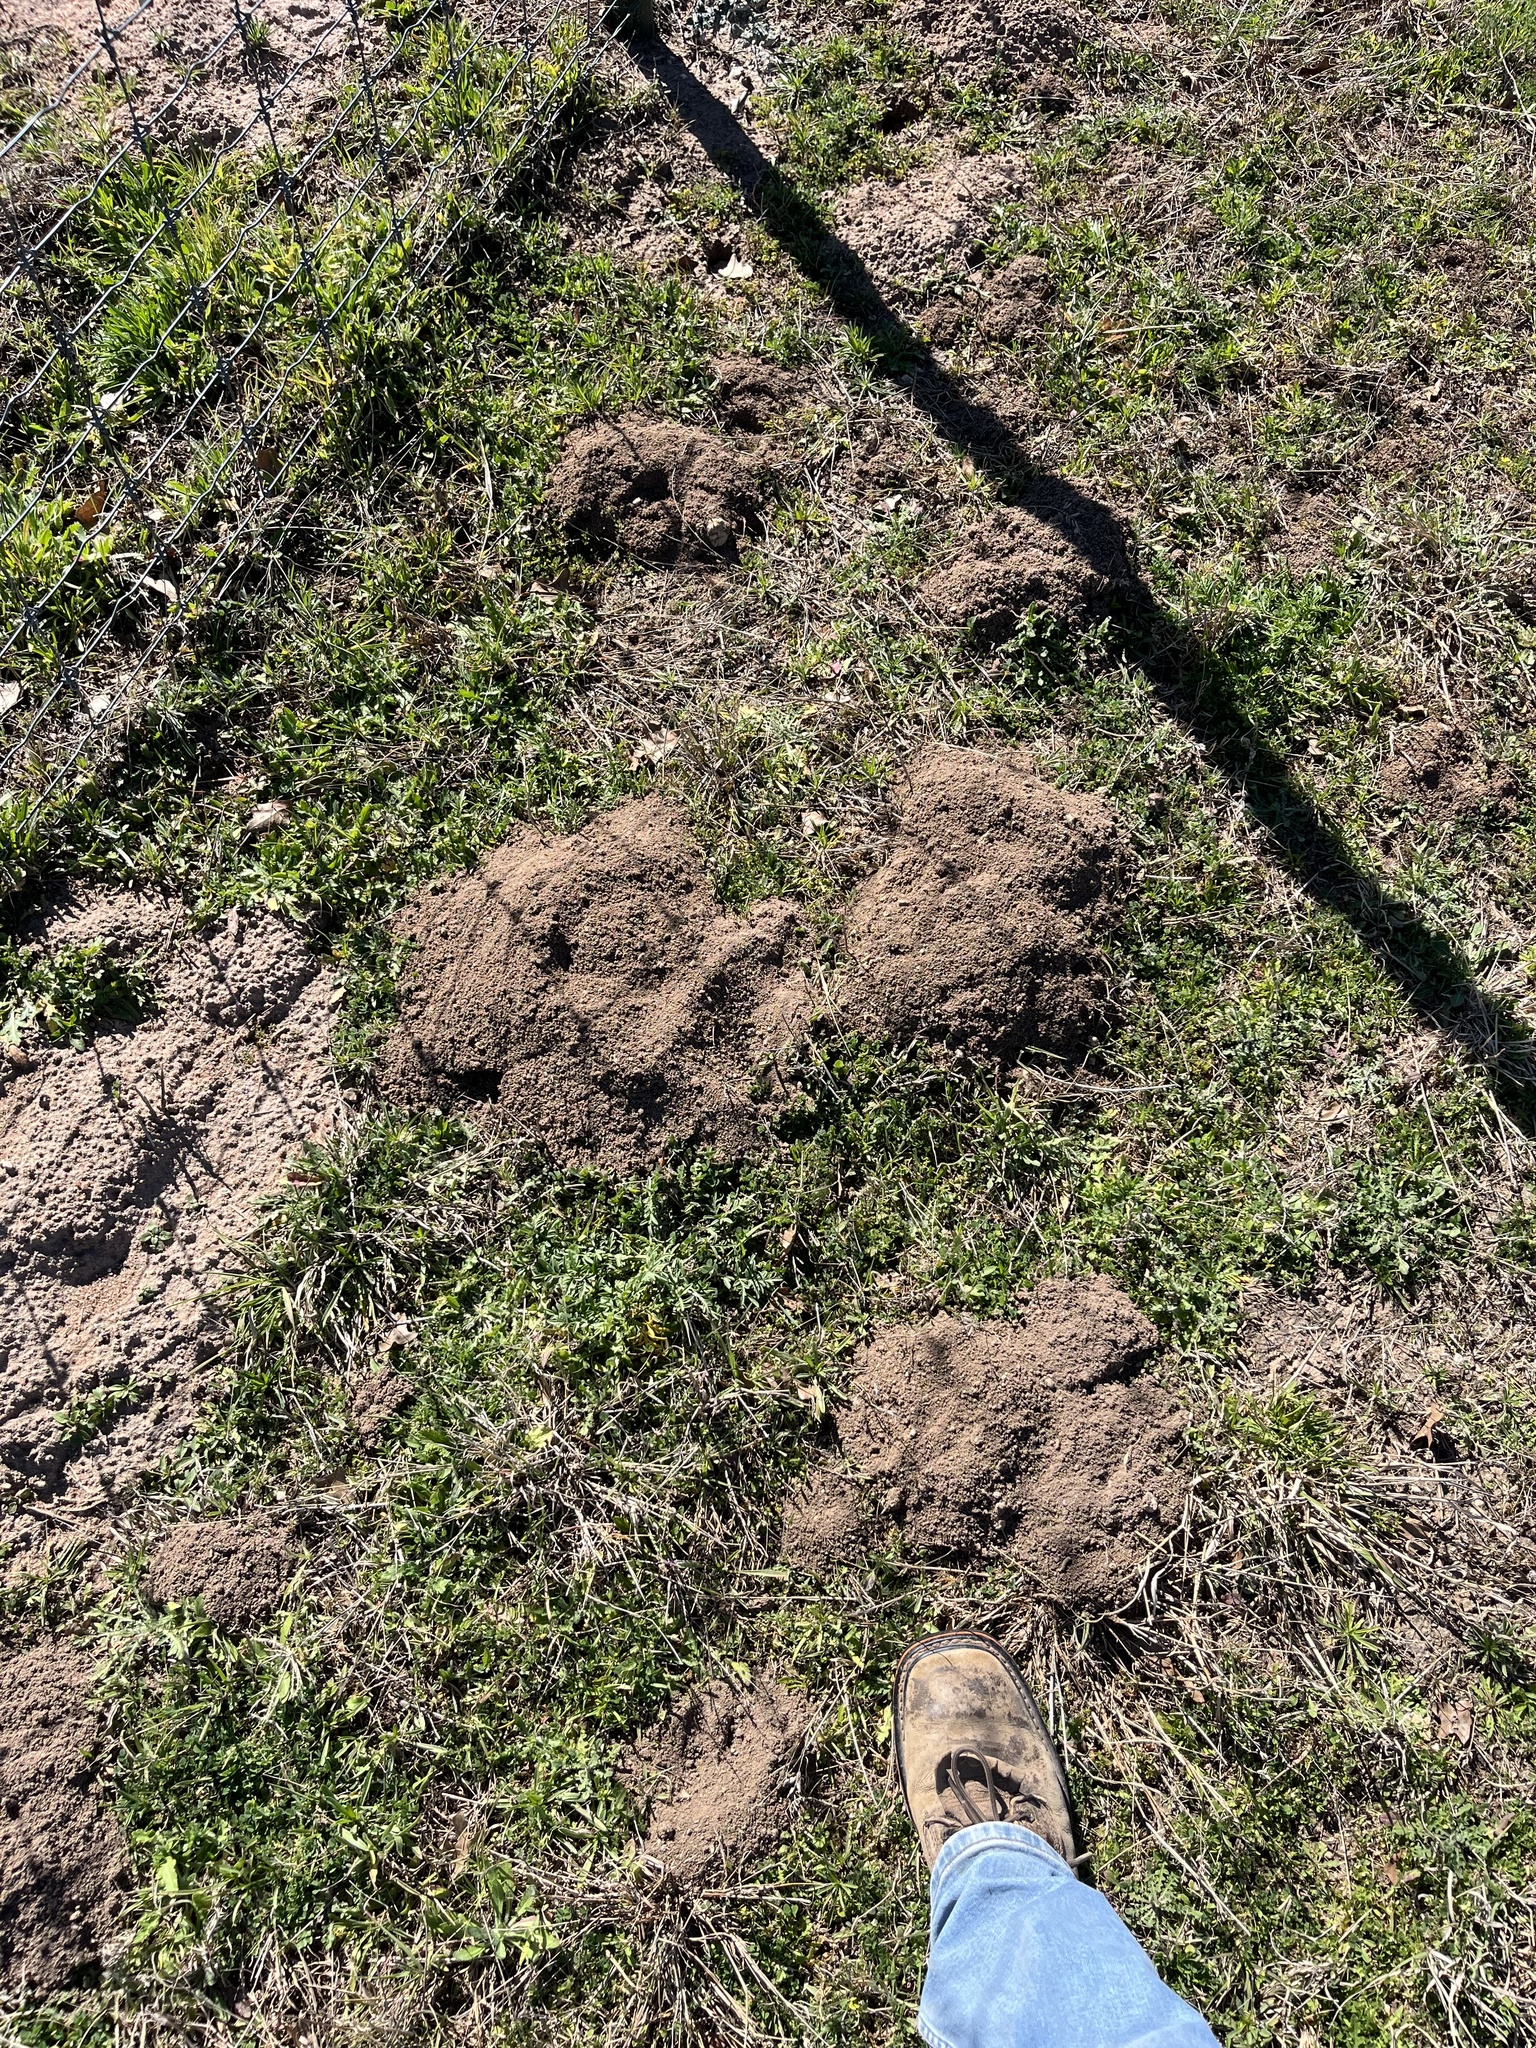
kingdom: Animalia
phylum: Chordata
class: Mammalia
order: Rodentia
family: Geomyidae
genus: Geomys
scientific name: Geomys texensis
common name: Llano pocket gopher
